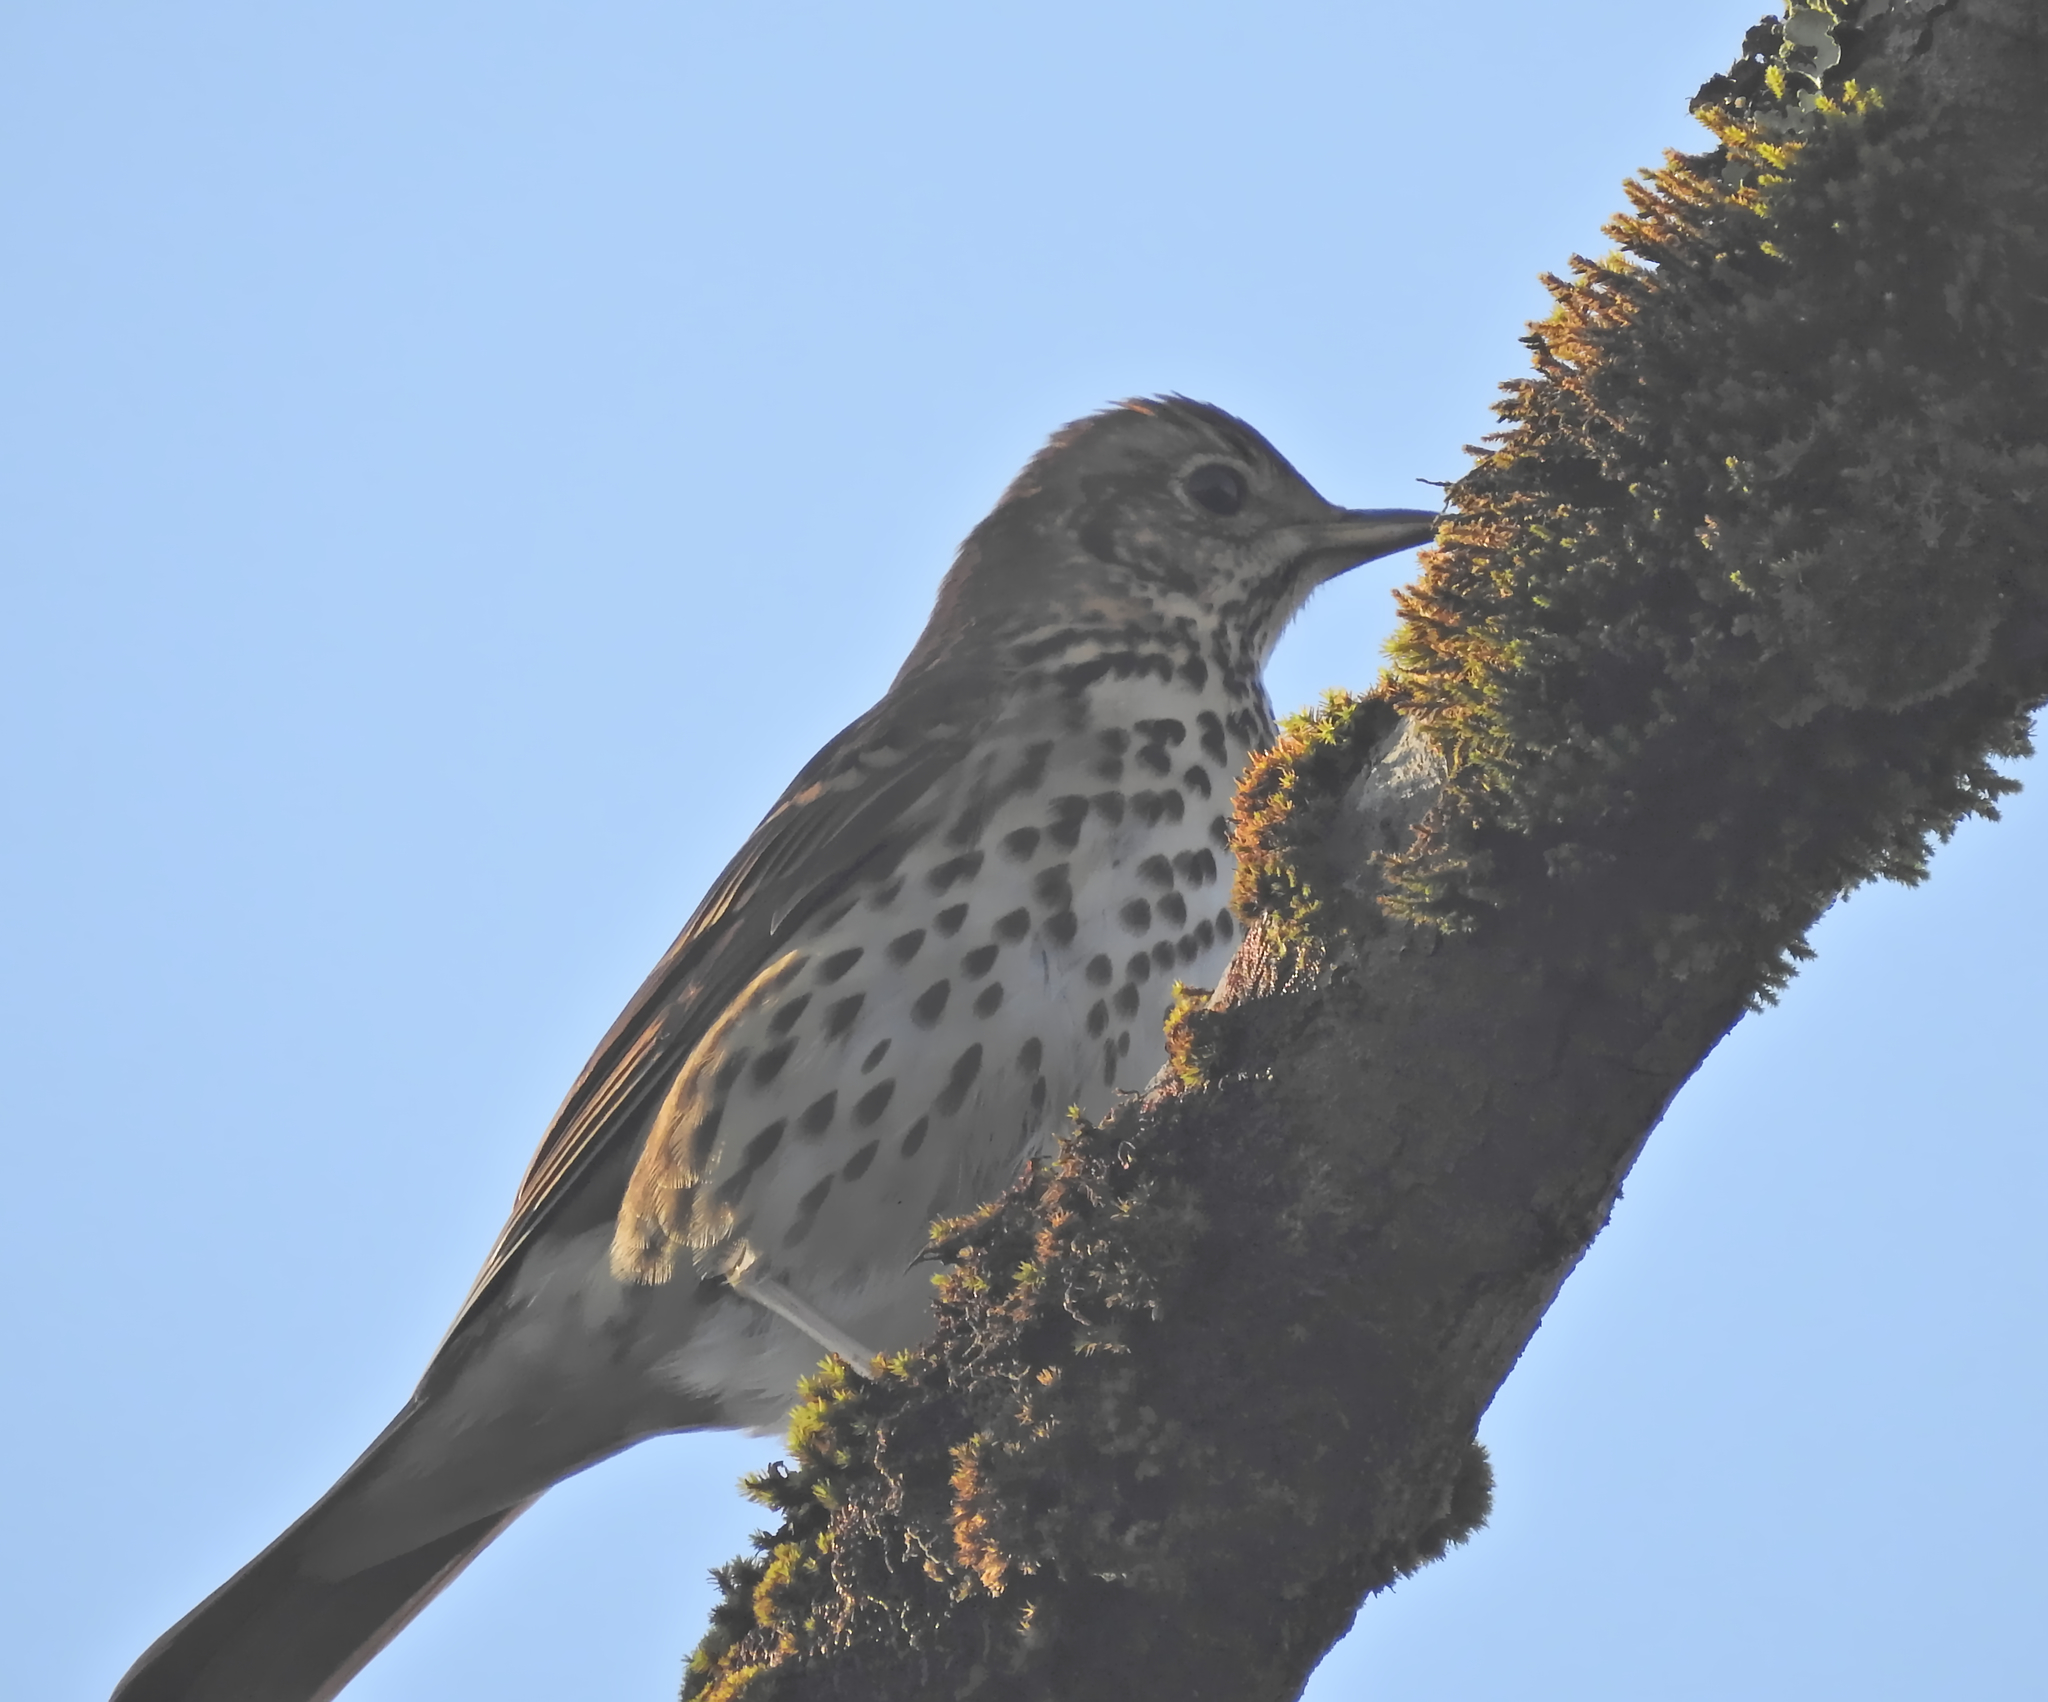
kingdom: Animalia
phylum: Chordata
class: Aves
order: Passeriformes
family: Turdidae
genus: Turdus
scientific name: Turdus philomelos
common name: Song thrush
